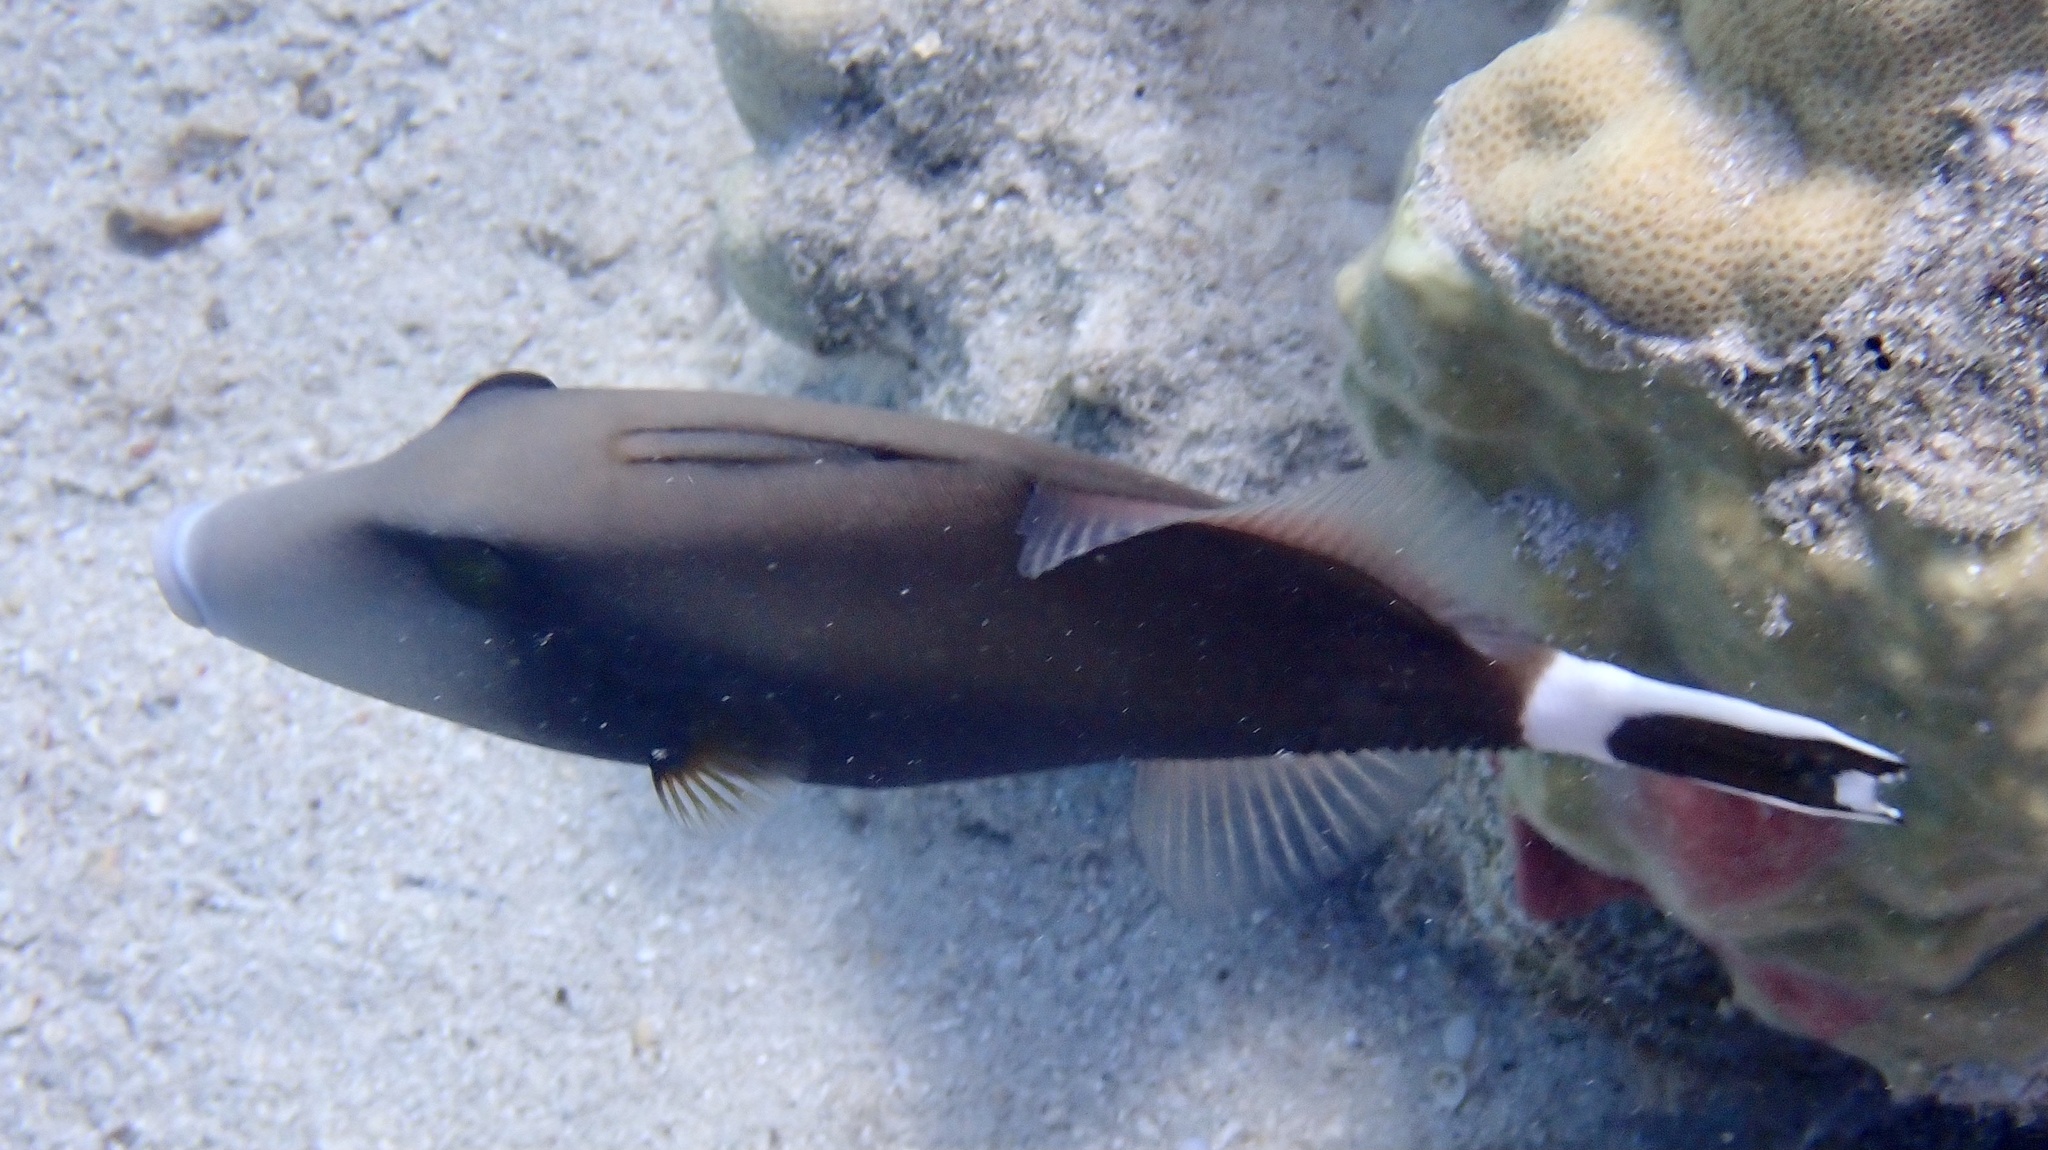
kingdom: Animalia
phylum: Chordata
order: Tetraodontiformes
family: Balistidae
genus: Sufflamen
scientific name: Sufflamen albicaudatum
